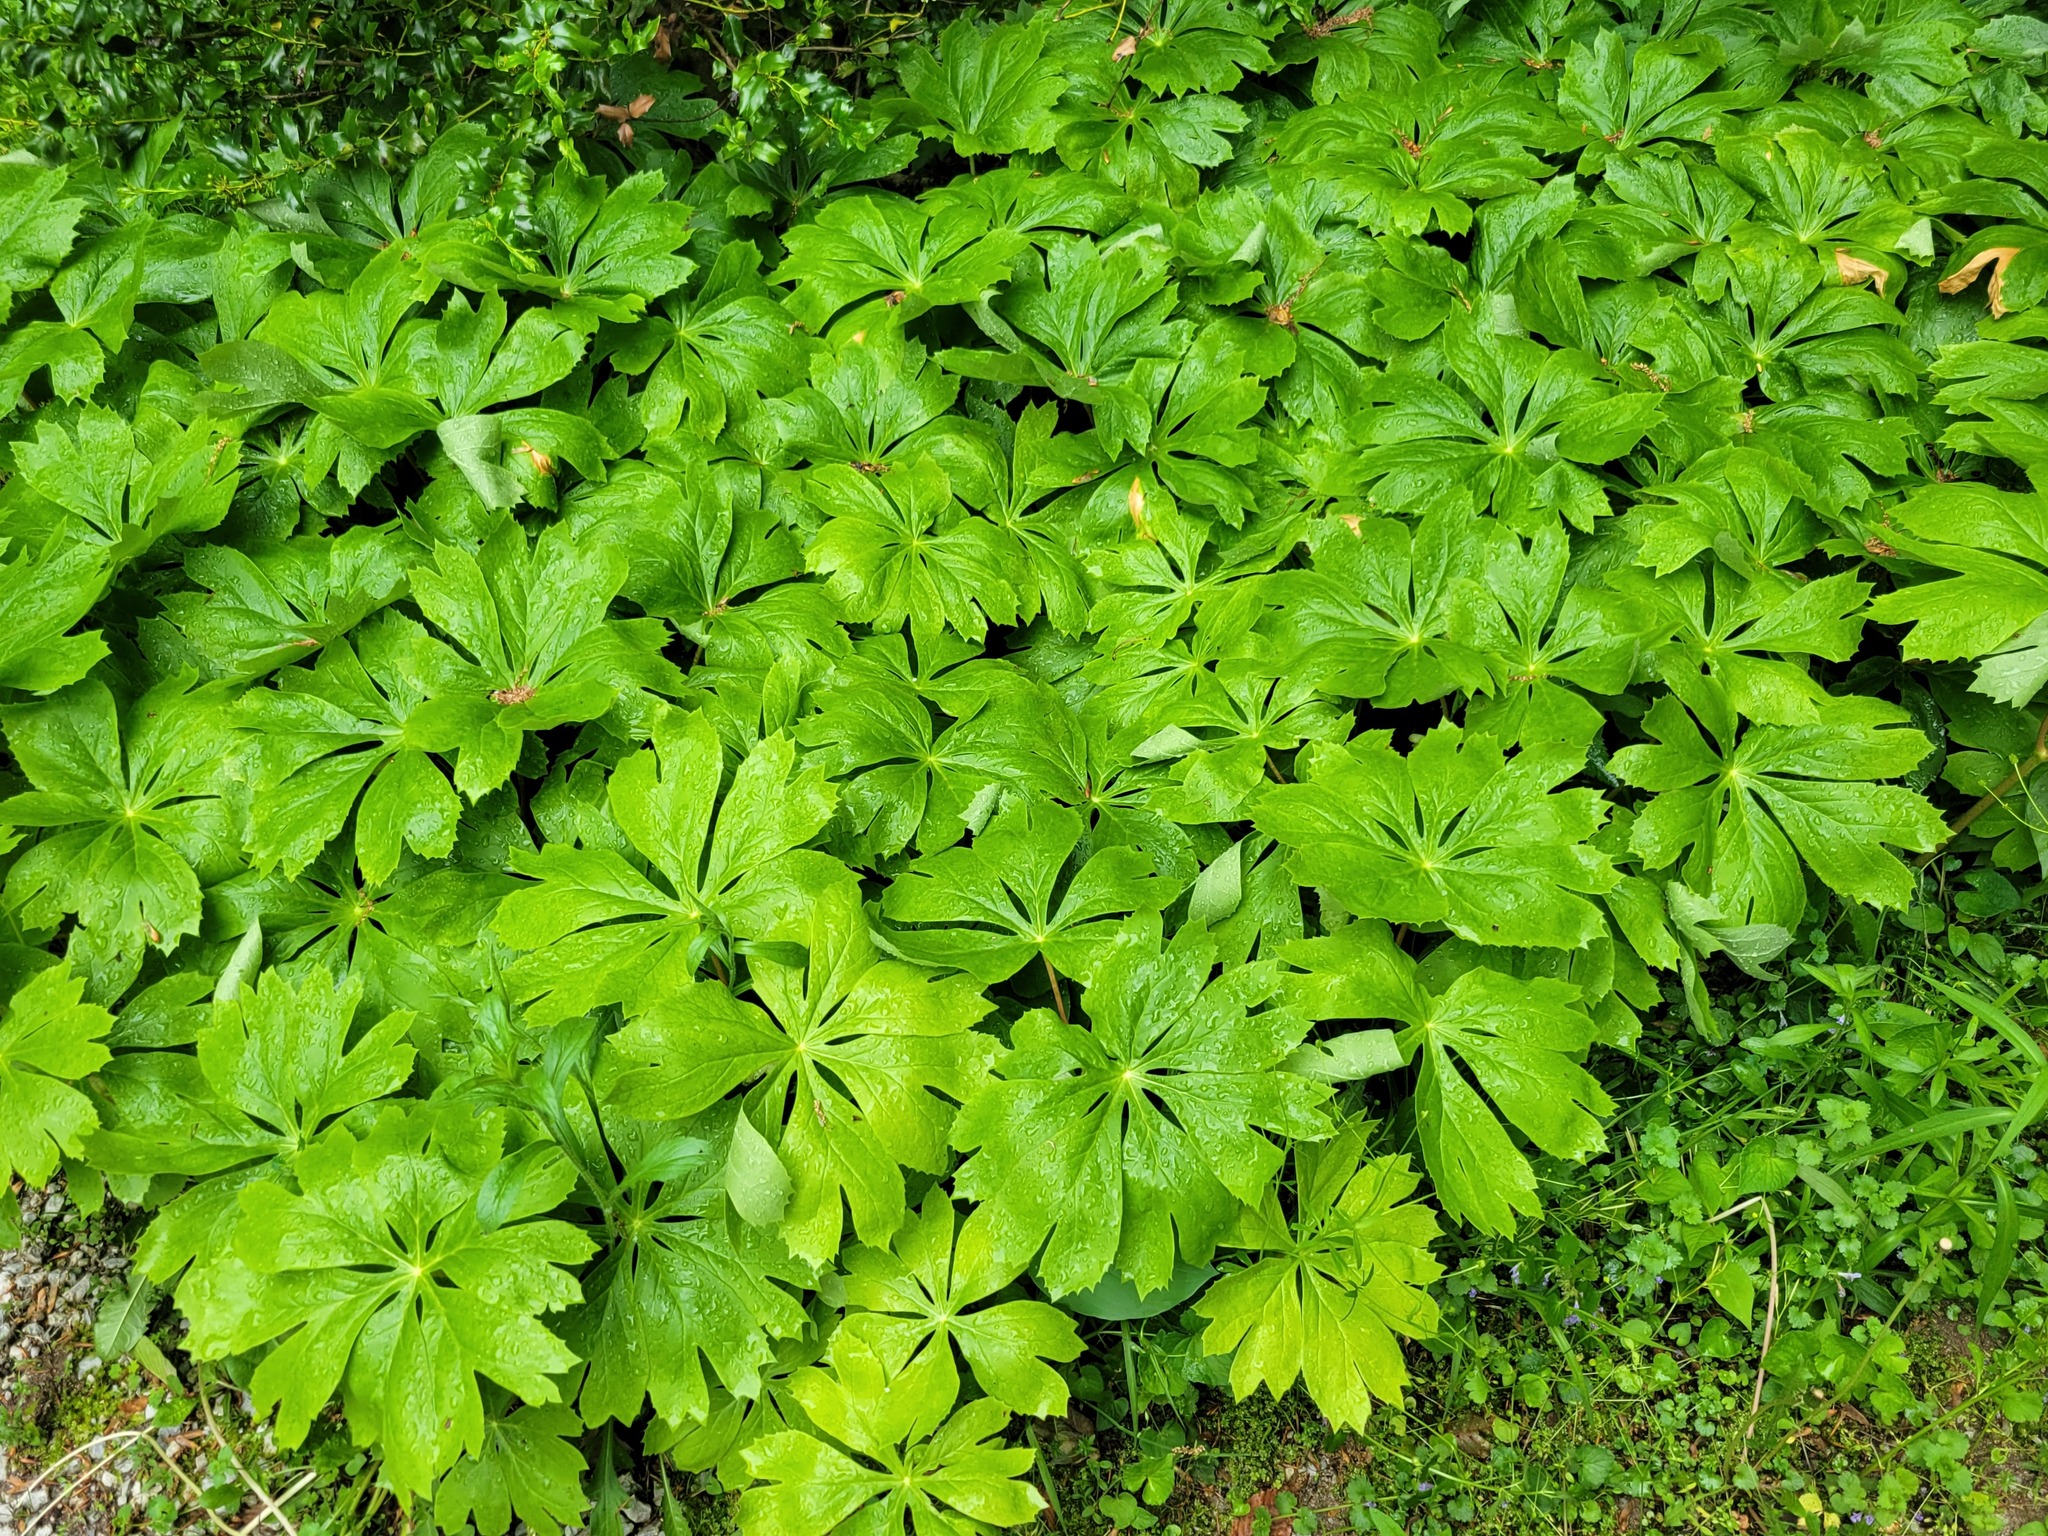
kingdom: Plantae
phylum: Tracheophyta
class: Magnoliopsida
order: Ranunculales
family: Berberidaceae
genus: Podophyllum
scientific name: Podophyllum peltatum
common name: Wild mandrake
